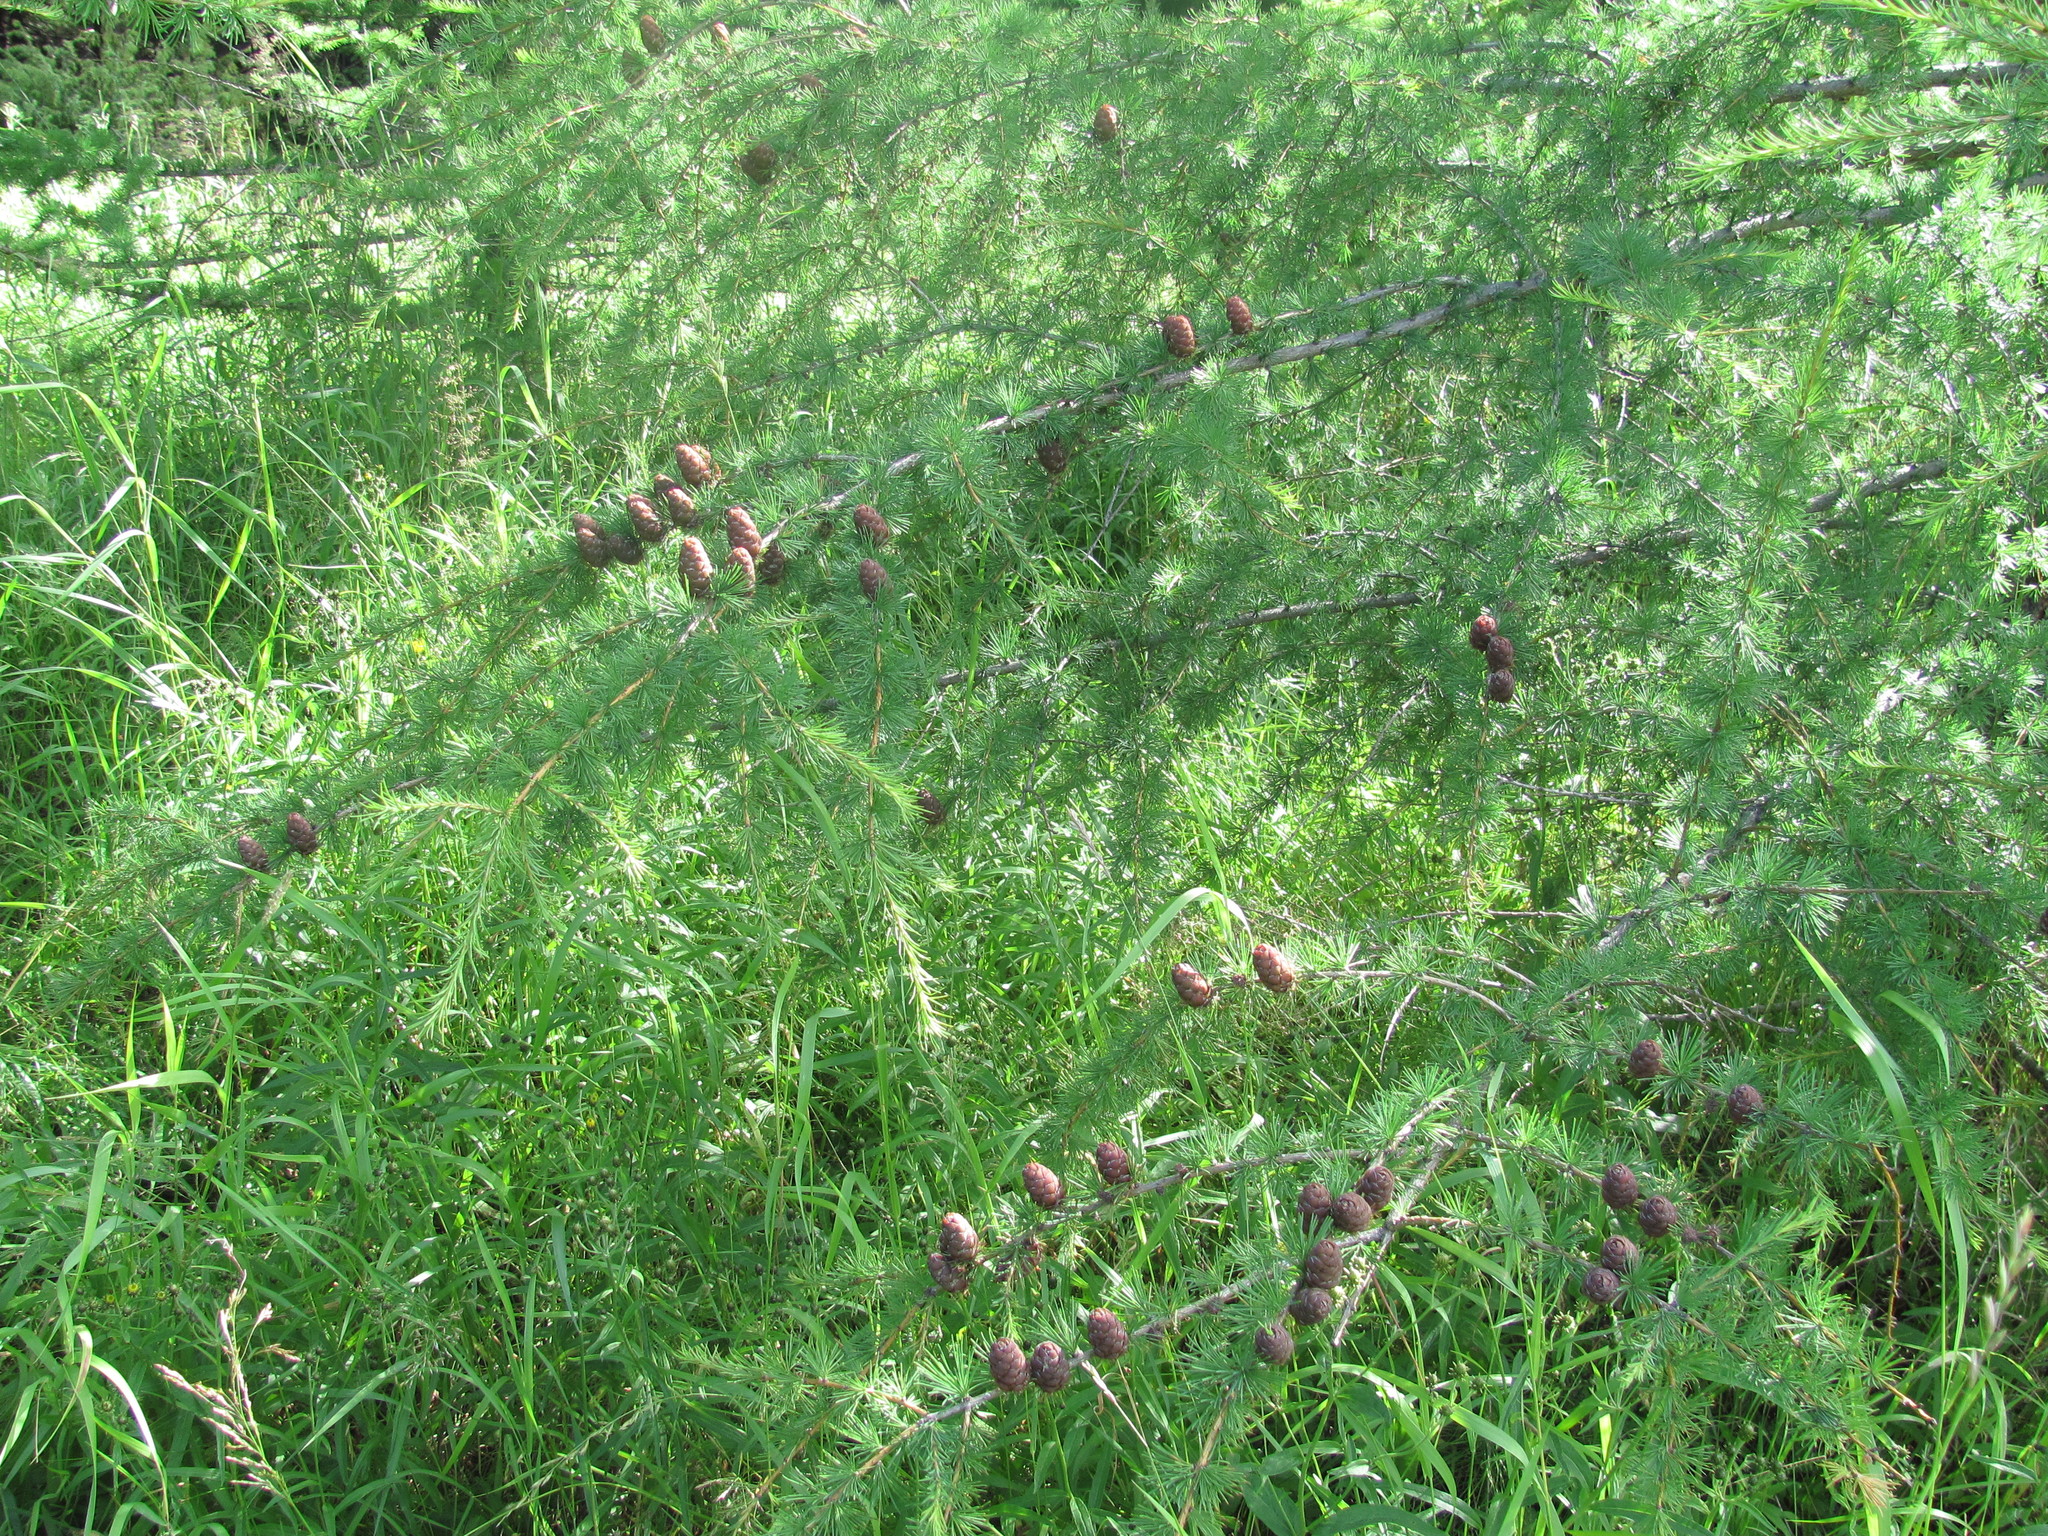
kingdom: Plantae
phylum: Tracheophyta
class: Pinopsida
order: Pinales
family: Pinaceae
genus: Larix
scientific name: Larix sibirica
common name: Siberian larch
